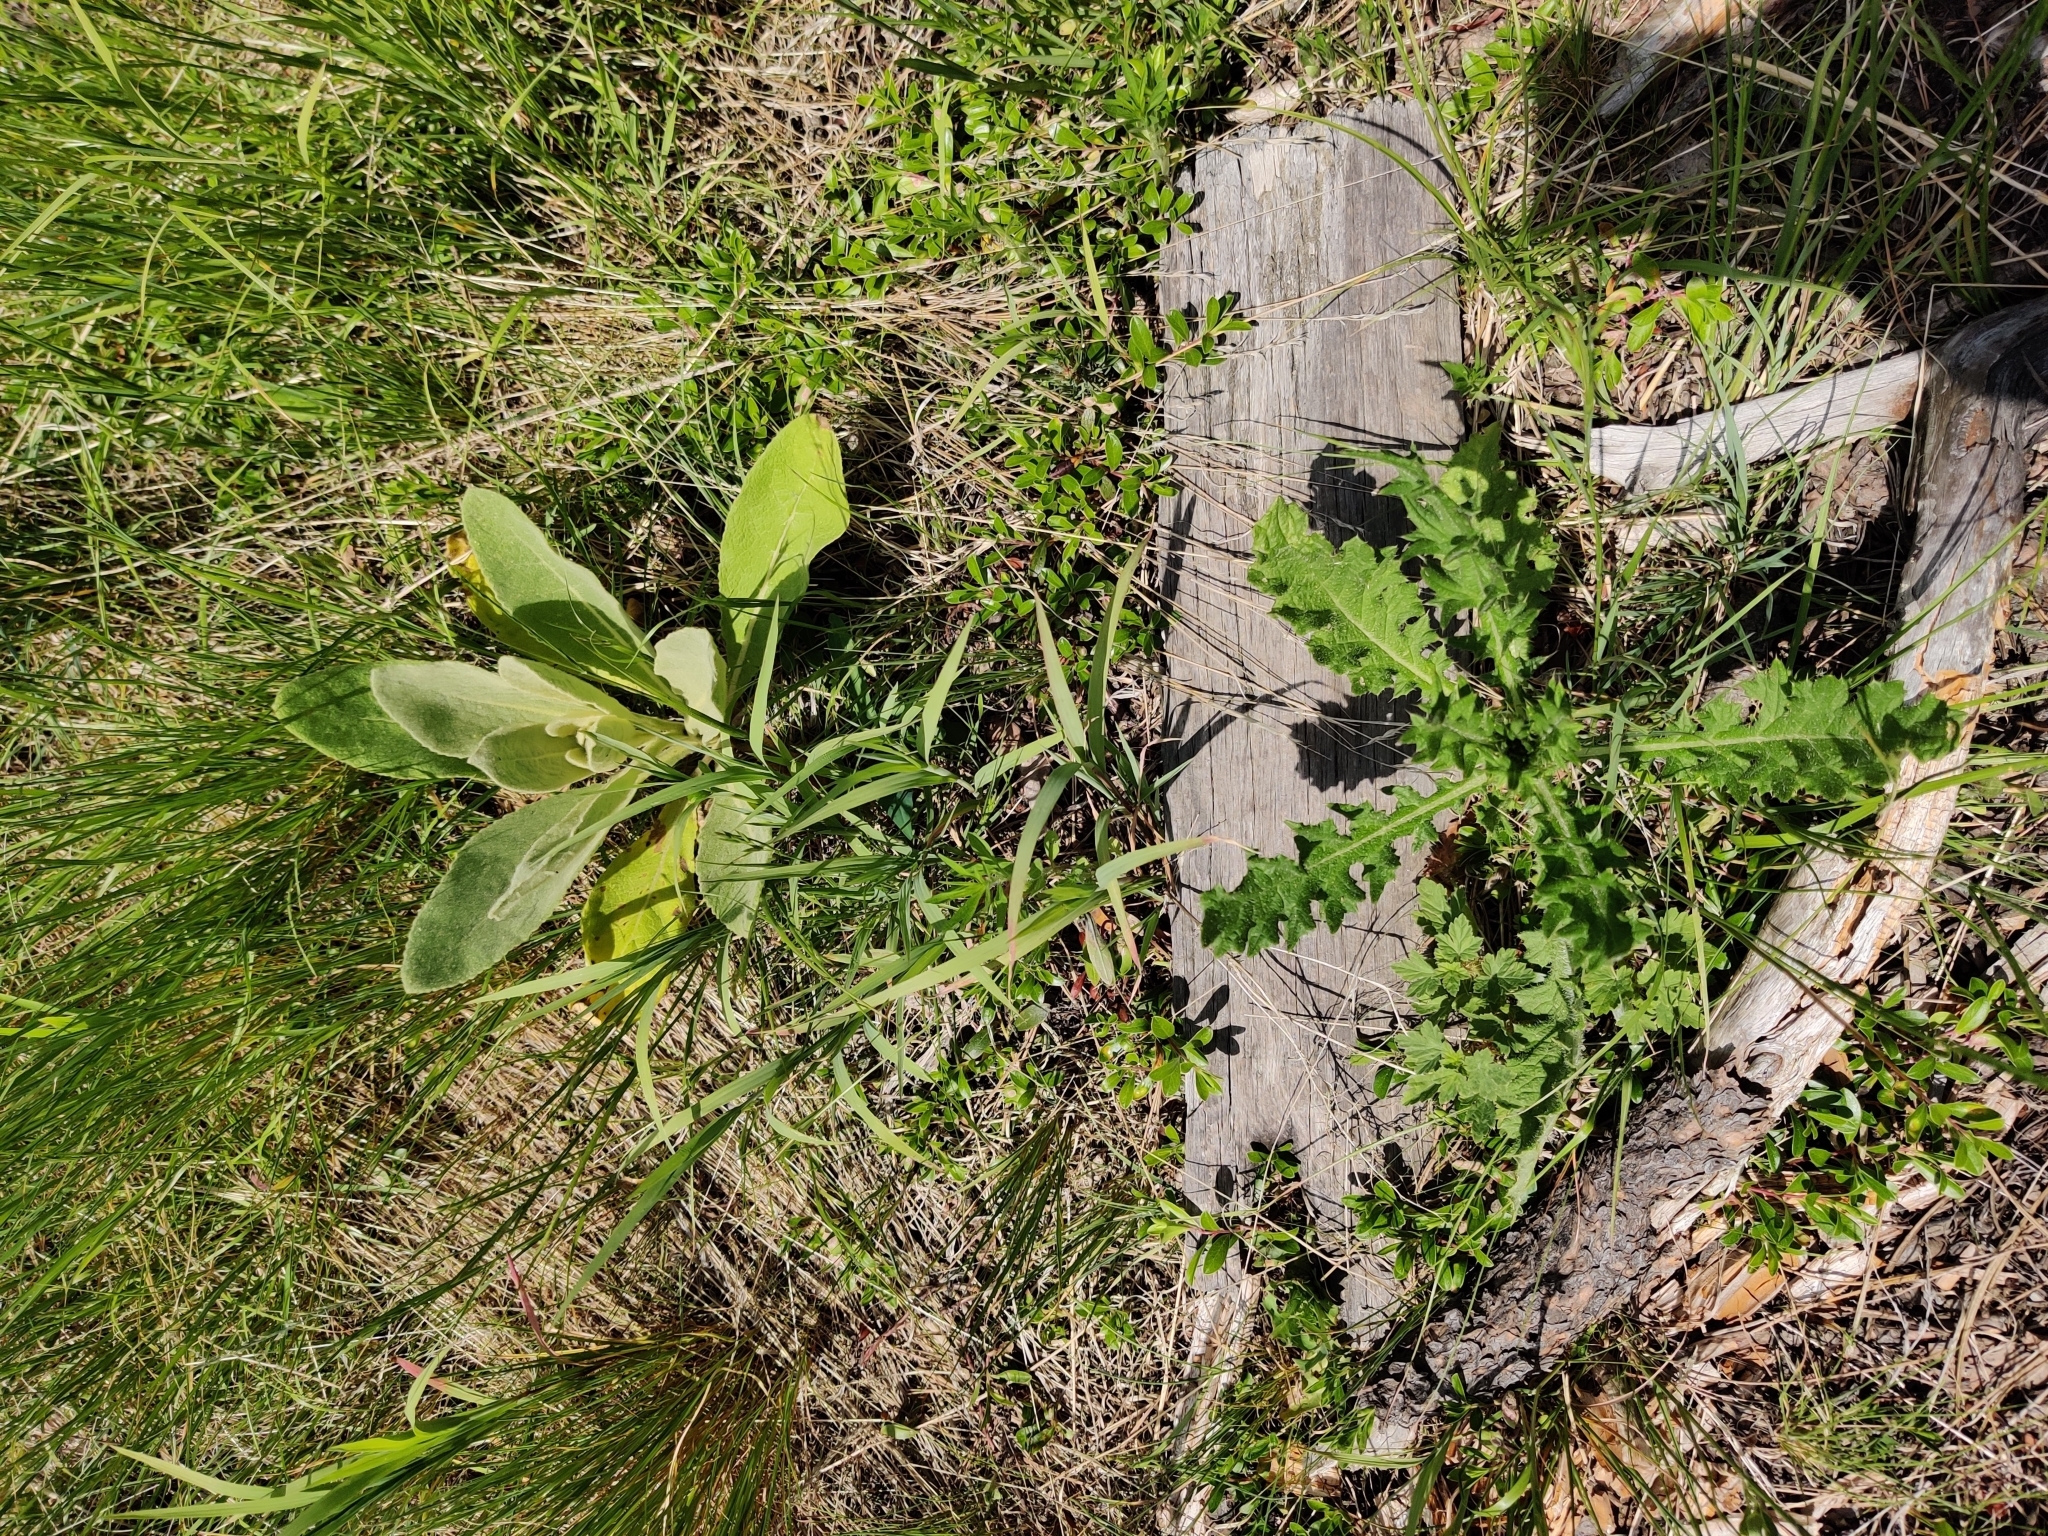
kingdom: Plantae
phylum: Tracheophyta
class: Magnoliopsida
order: Asterales
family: Asteraceae
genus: Cirsium
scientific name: Cirsium vulgare
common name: Bull thistle
